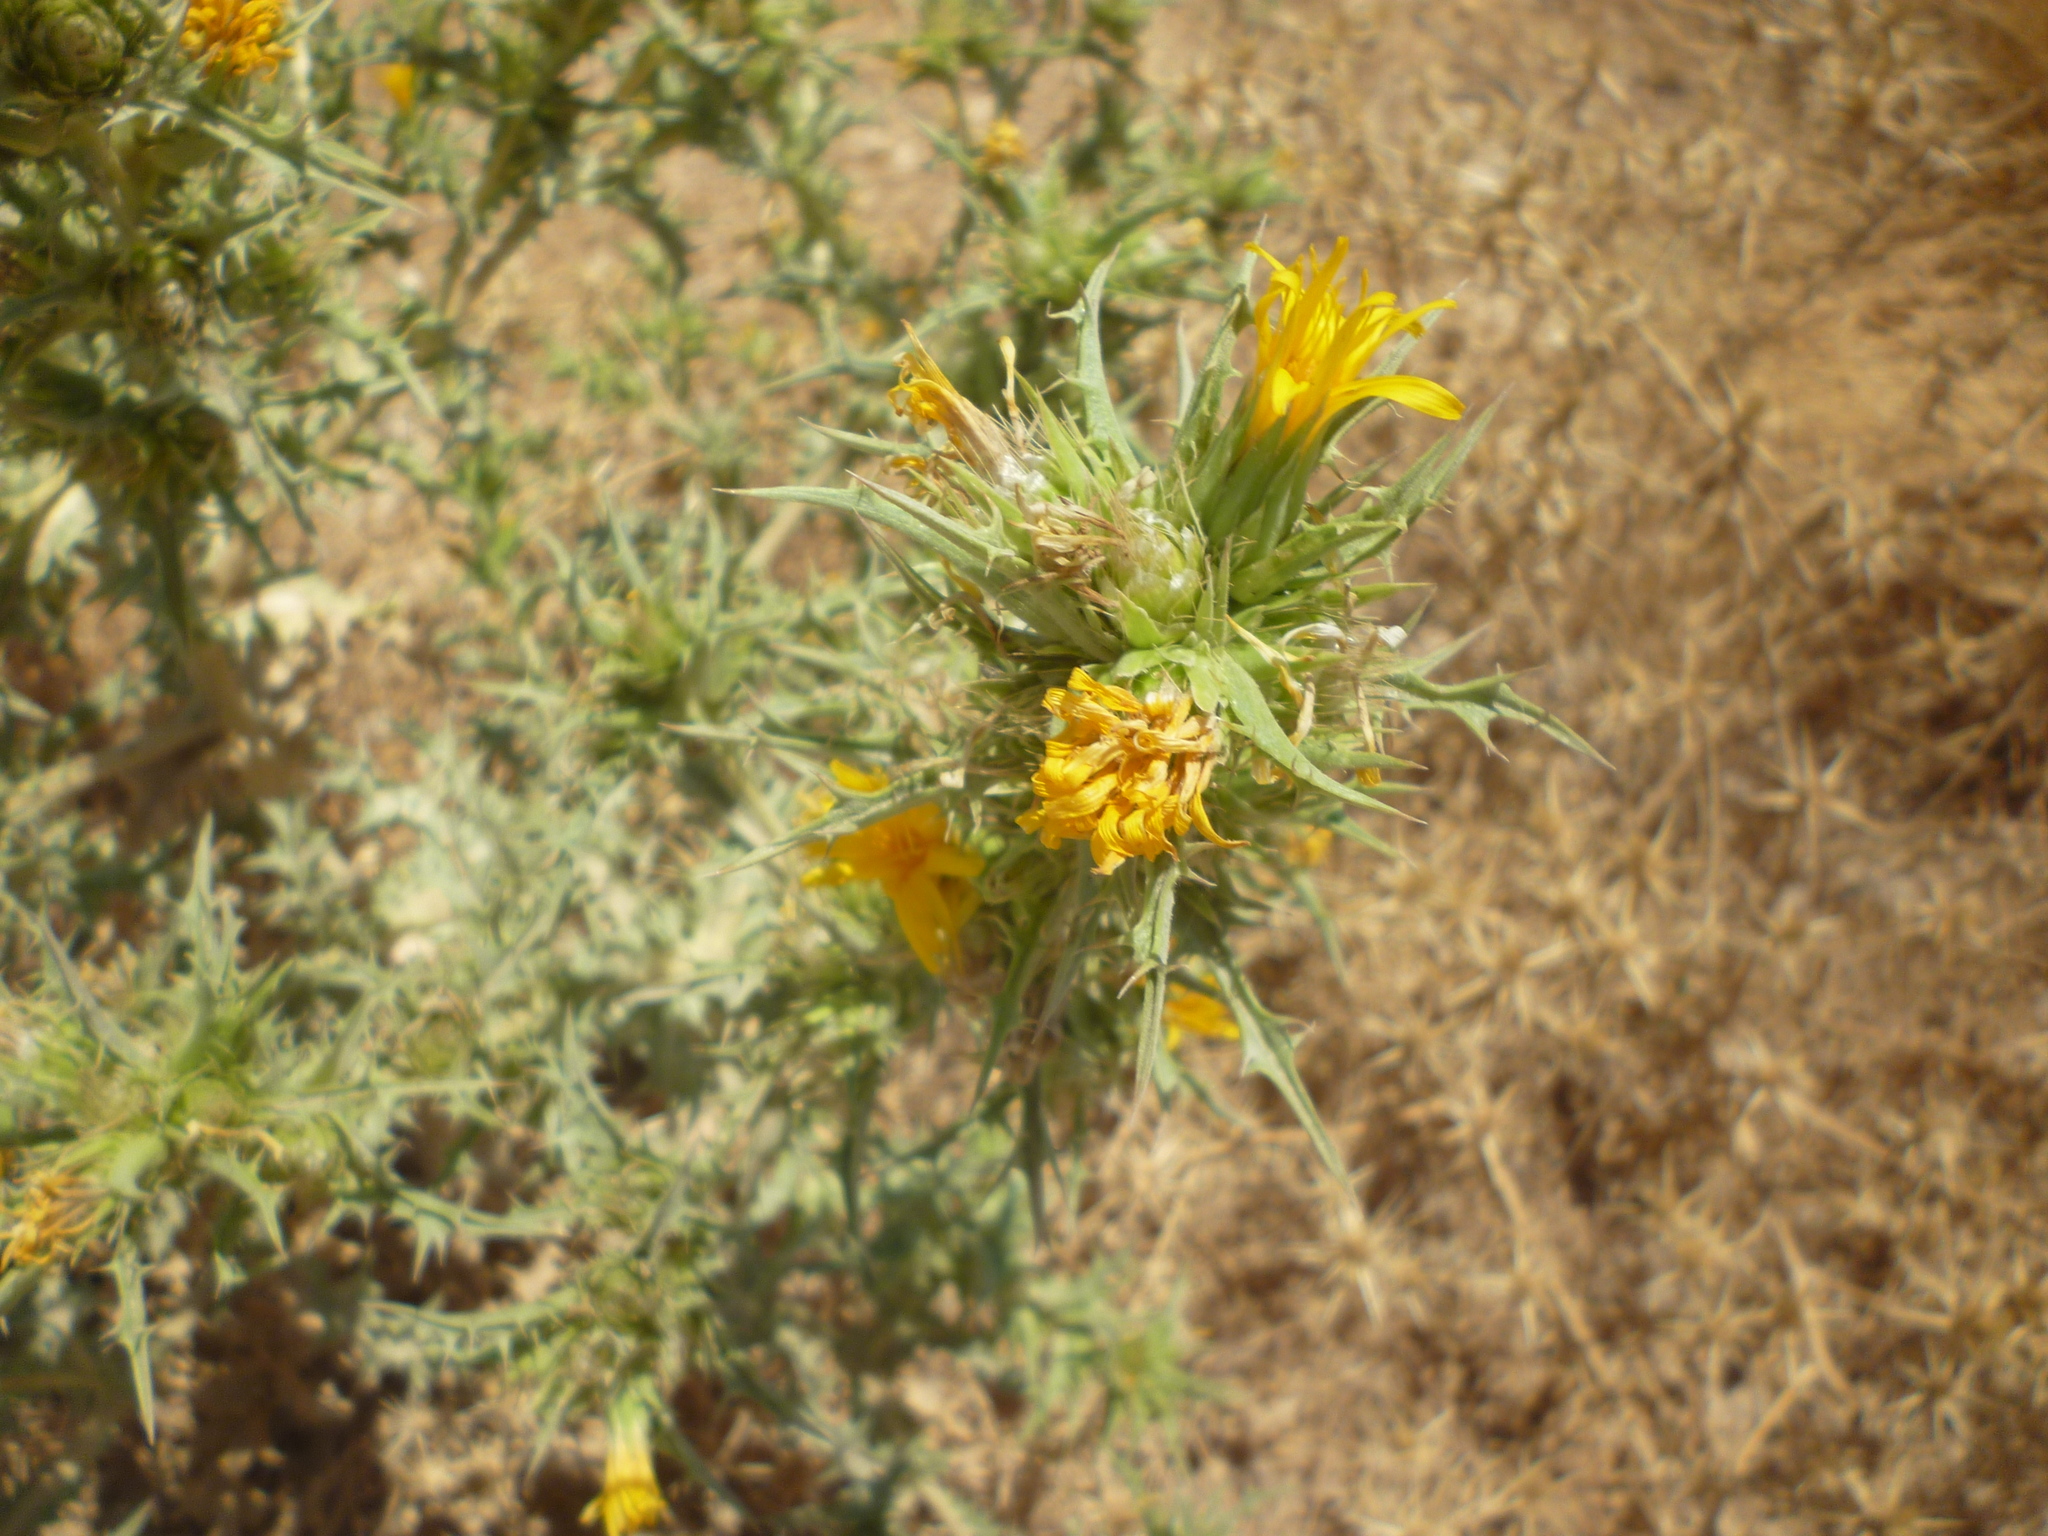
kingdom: Plantae
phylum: Tracheophyta
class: Magnoliopsida
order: Asterales
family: Asteraceae
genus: Scolymus
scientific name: Scolymus hispanicus
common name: Golden thistle
